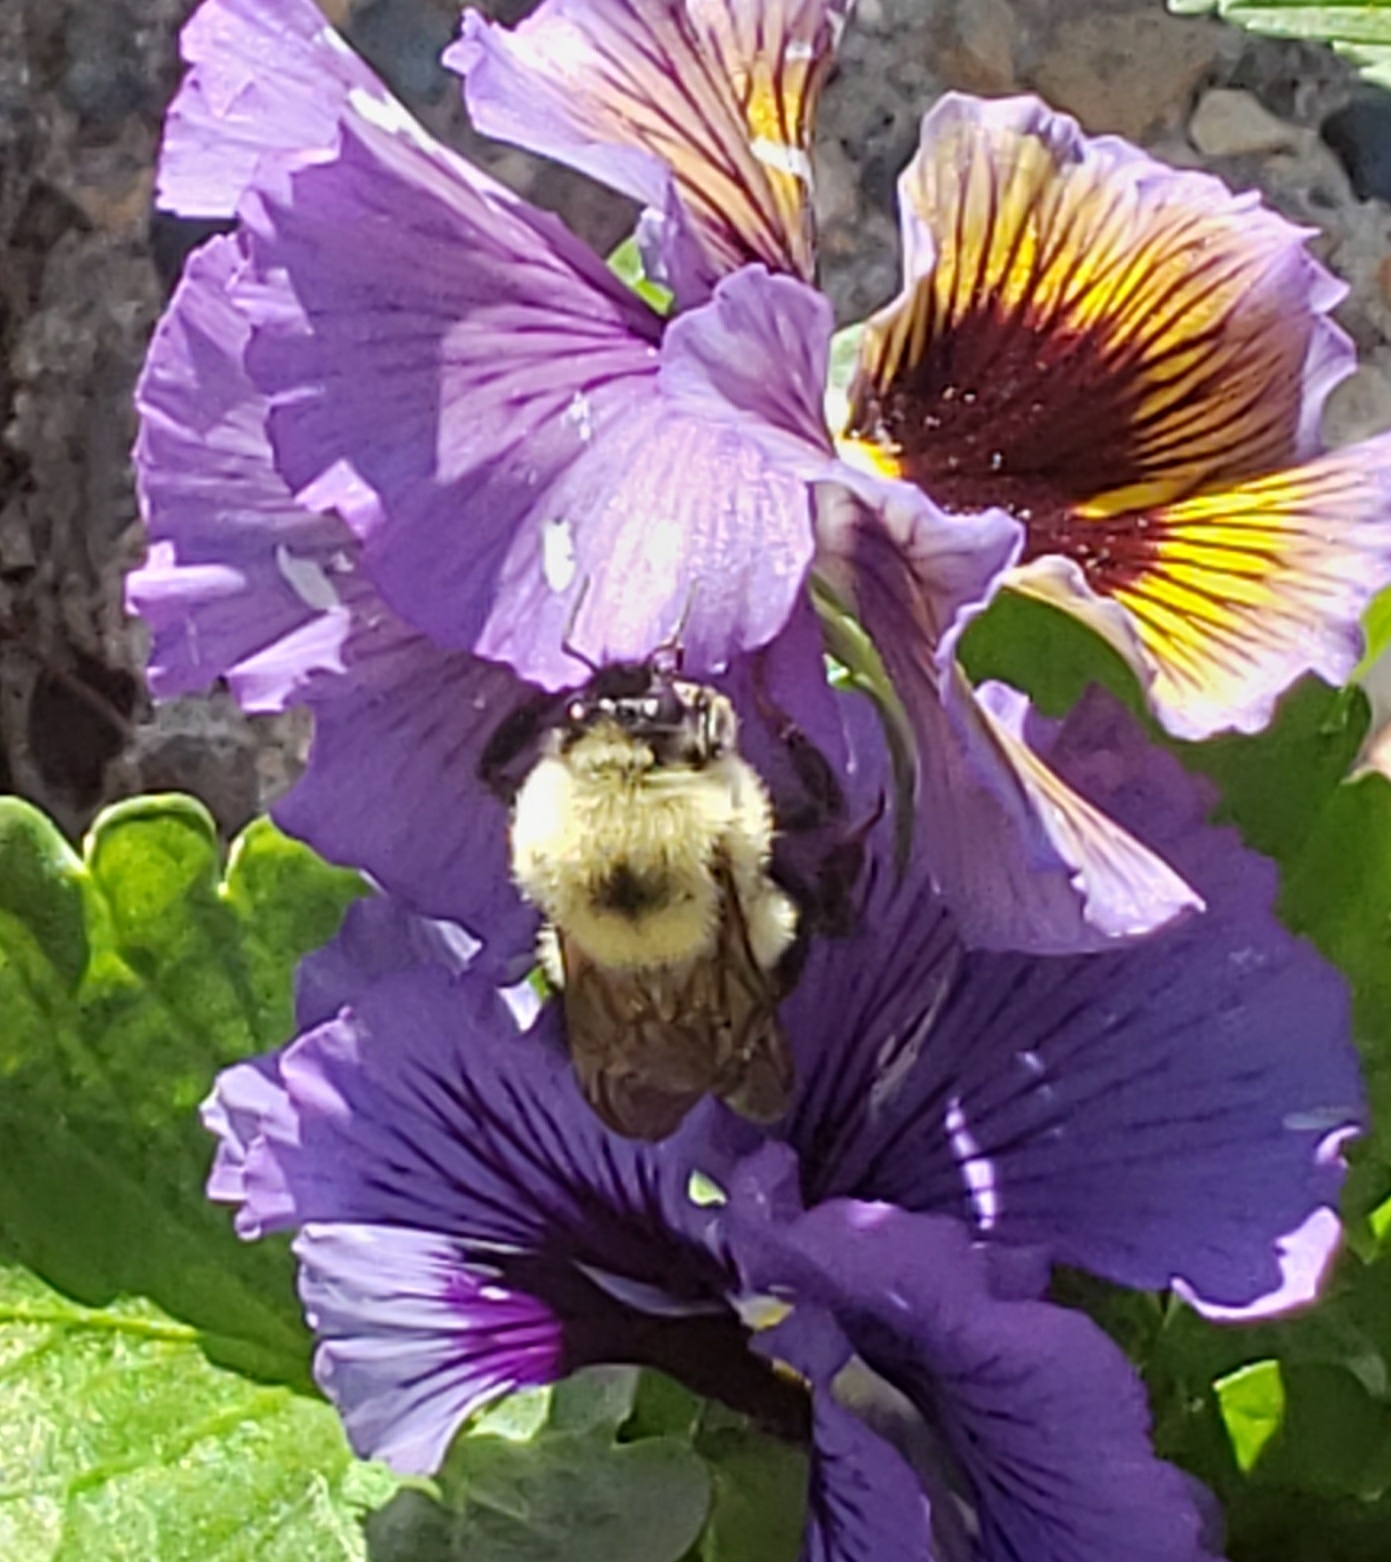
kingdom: Animalia
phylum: Arthropoda
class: Insecta
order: Hymenoptera
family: Apidae
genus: Bombus
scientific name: Bombus bimaculatus
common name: Two-spotted bumble bee
